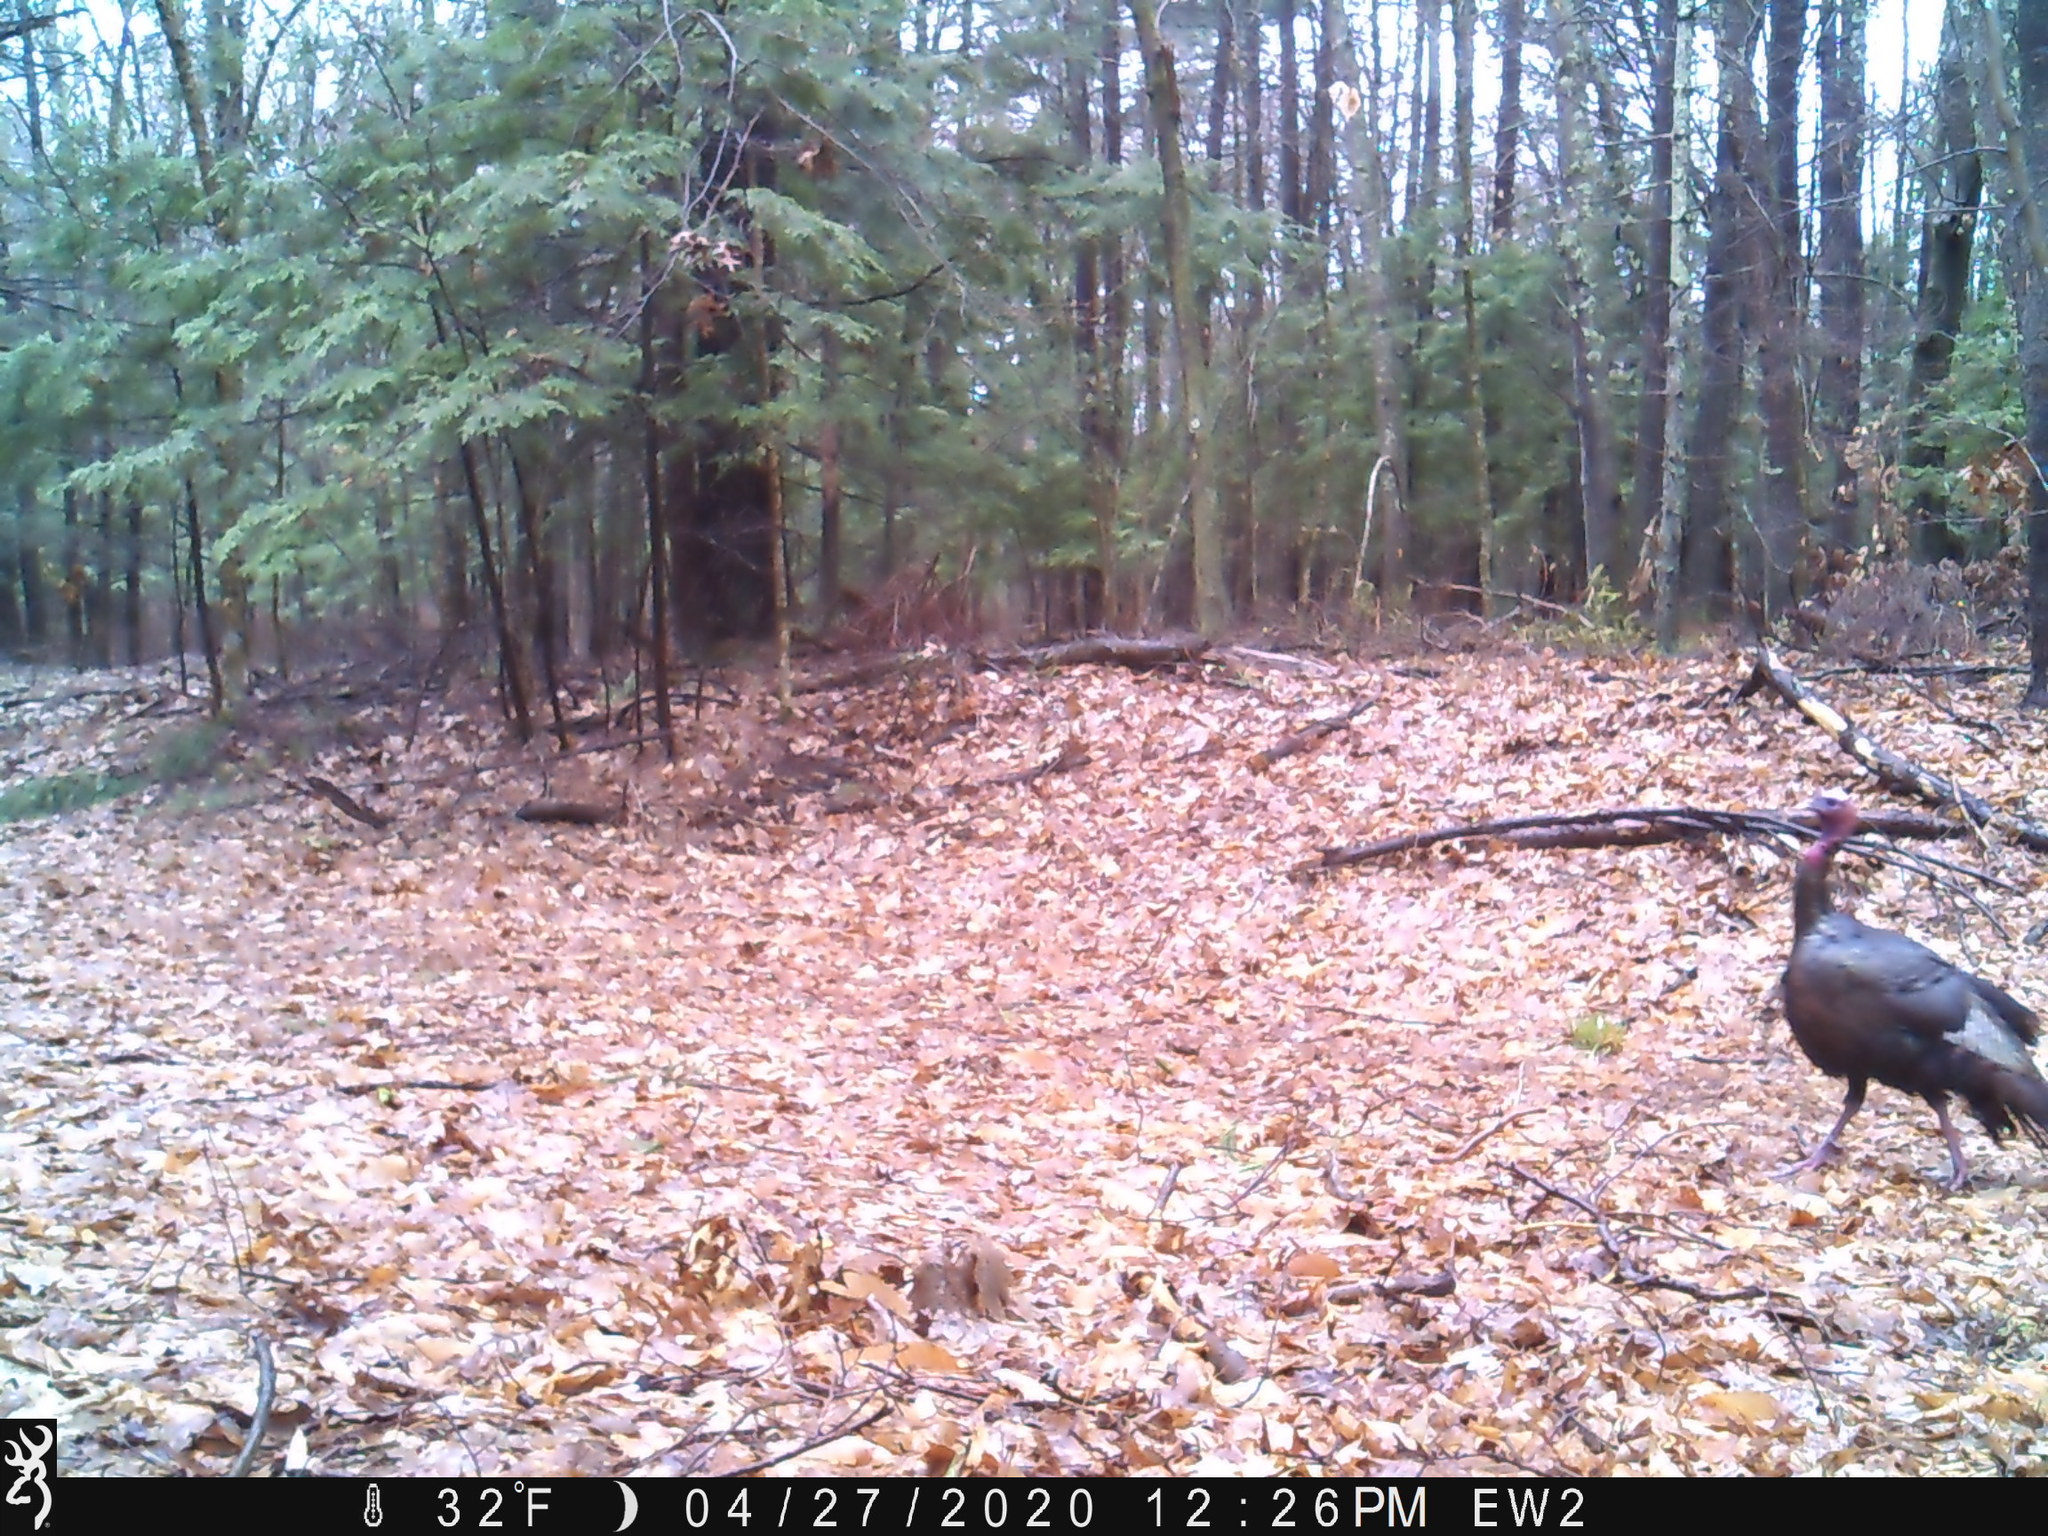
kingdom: Animalia
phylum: Chordata
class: Aves
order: Galliformes
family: Phasianidae
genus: Meleagris
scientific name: Meleagris gallopavo
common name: Wild turkey
